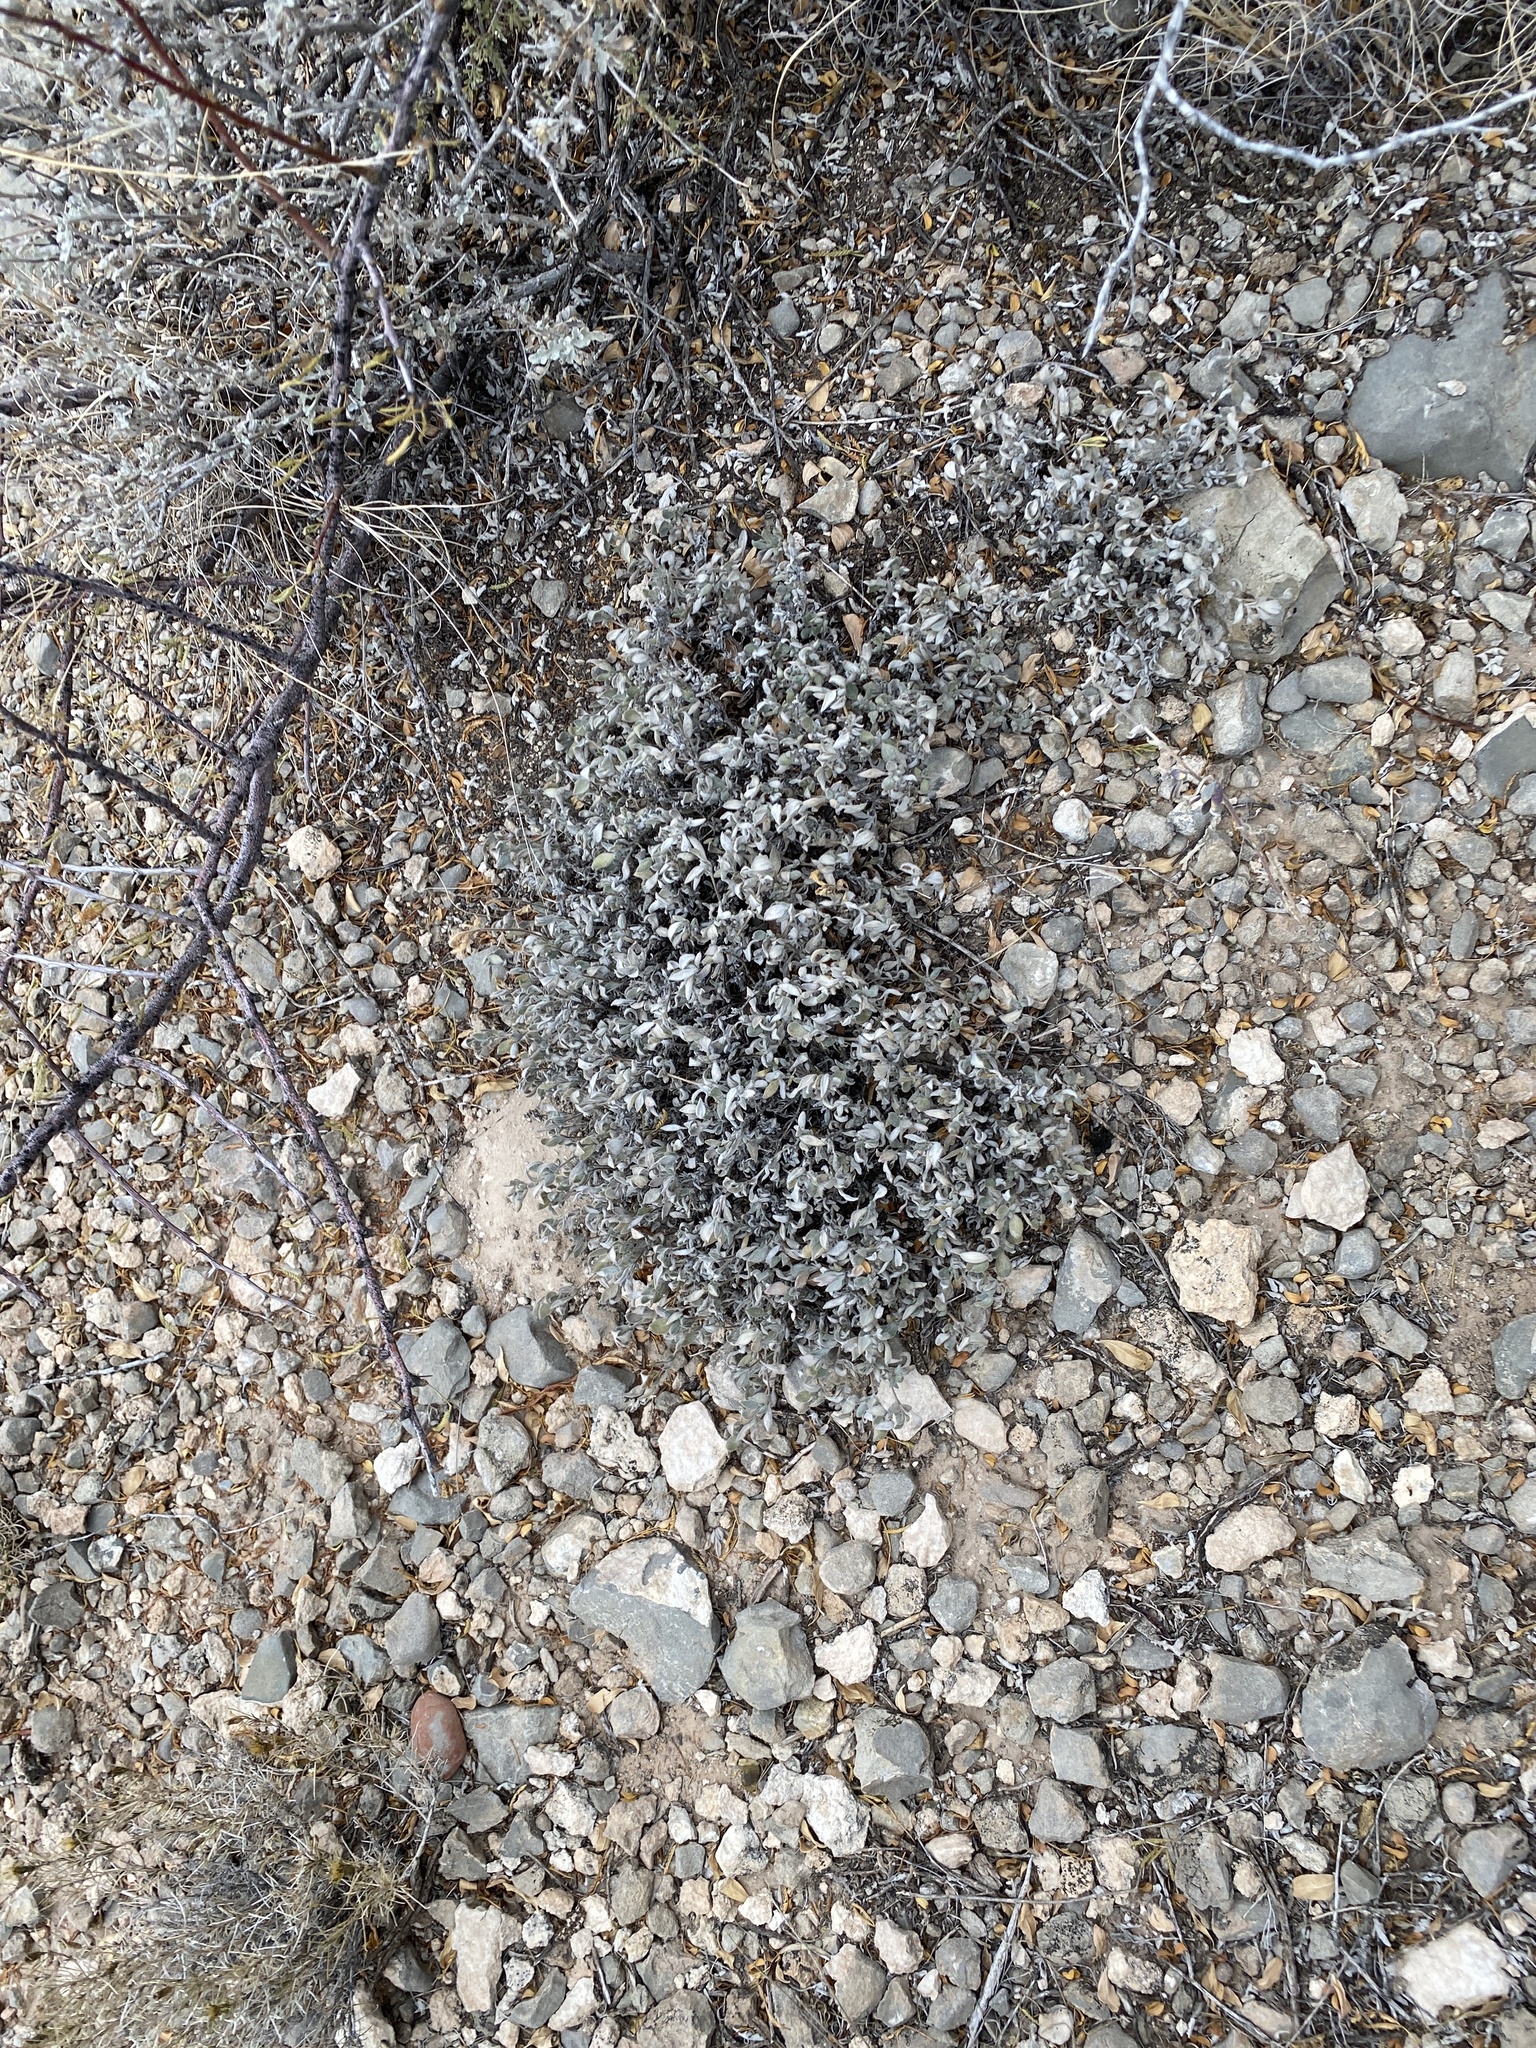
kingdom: Plantae
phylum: Tracheophyta
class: Magnoliopsida
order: Boraginales
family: Ehretiaceae
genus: Tiquilia
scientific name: Tiquilia canescens
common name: Hairy tiquilia
